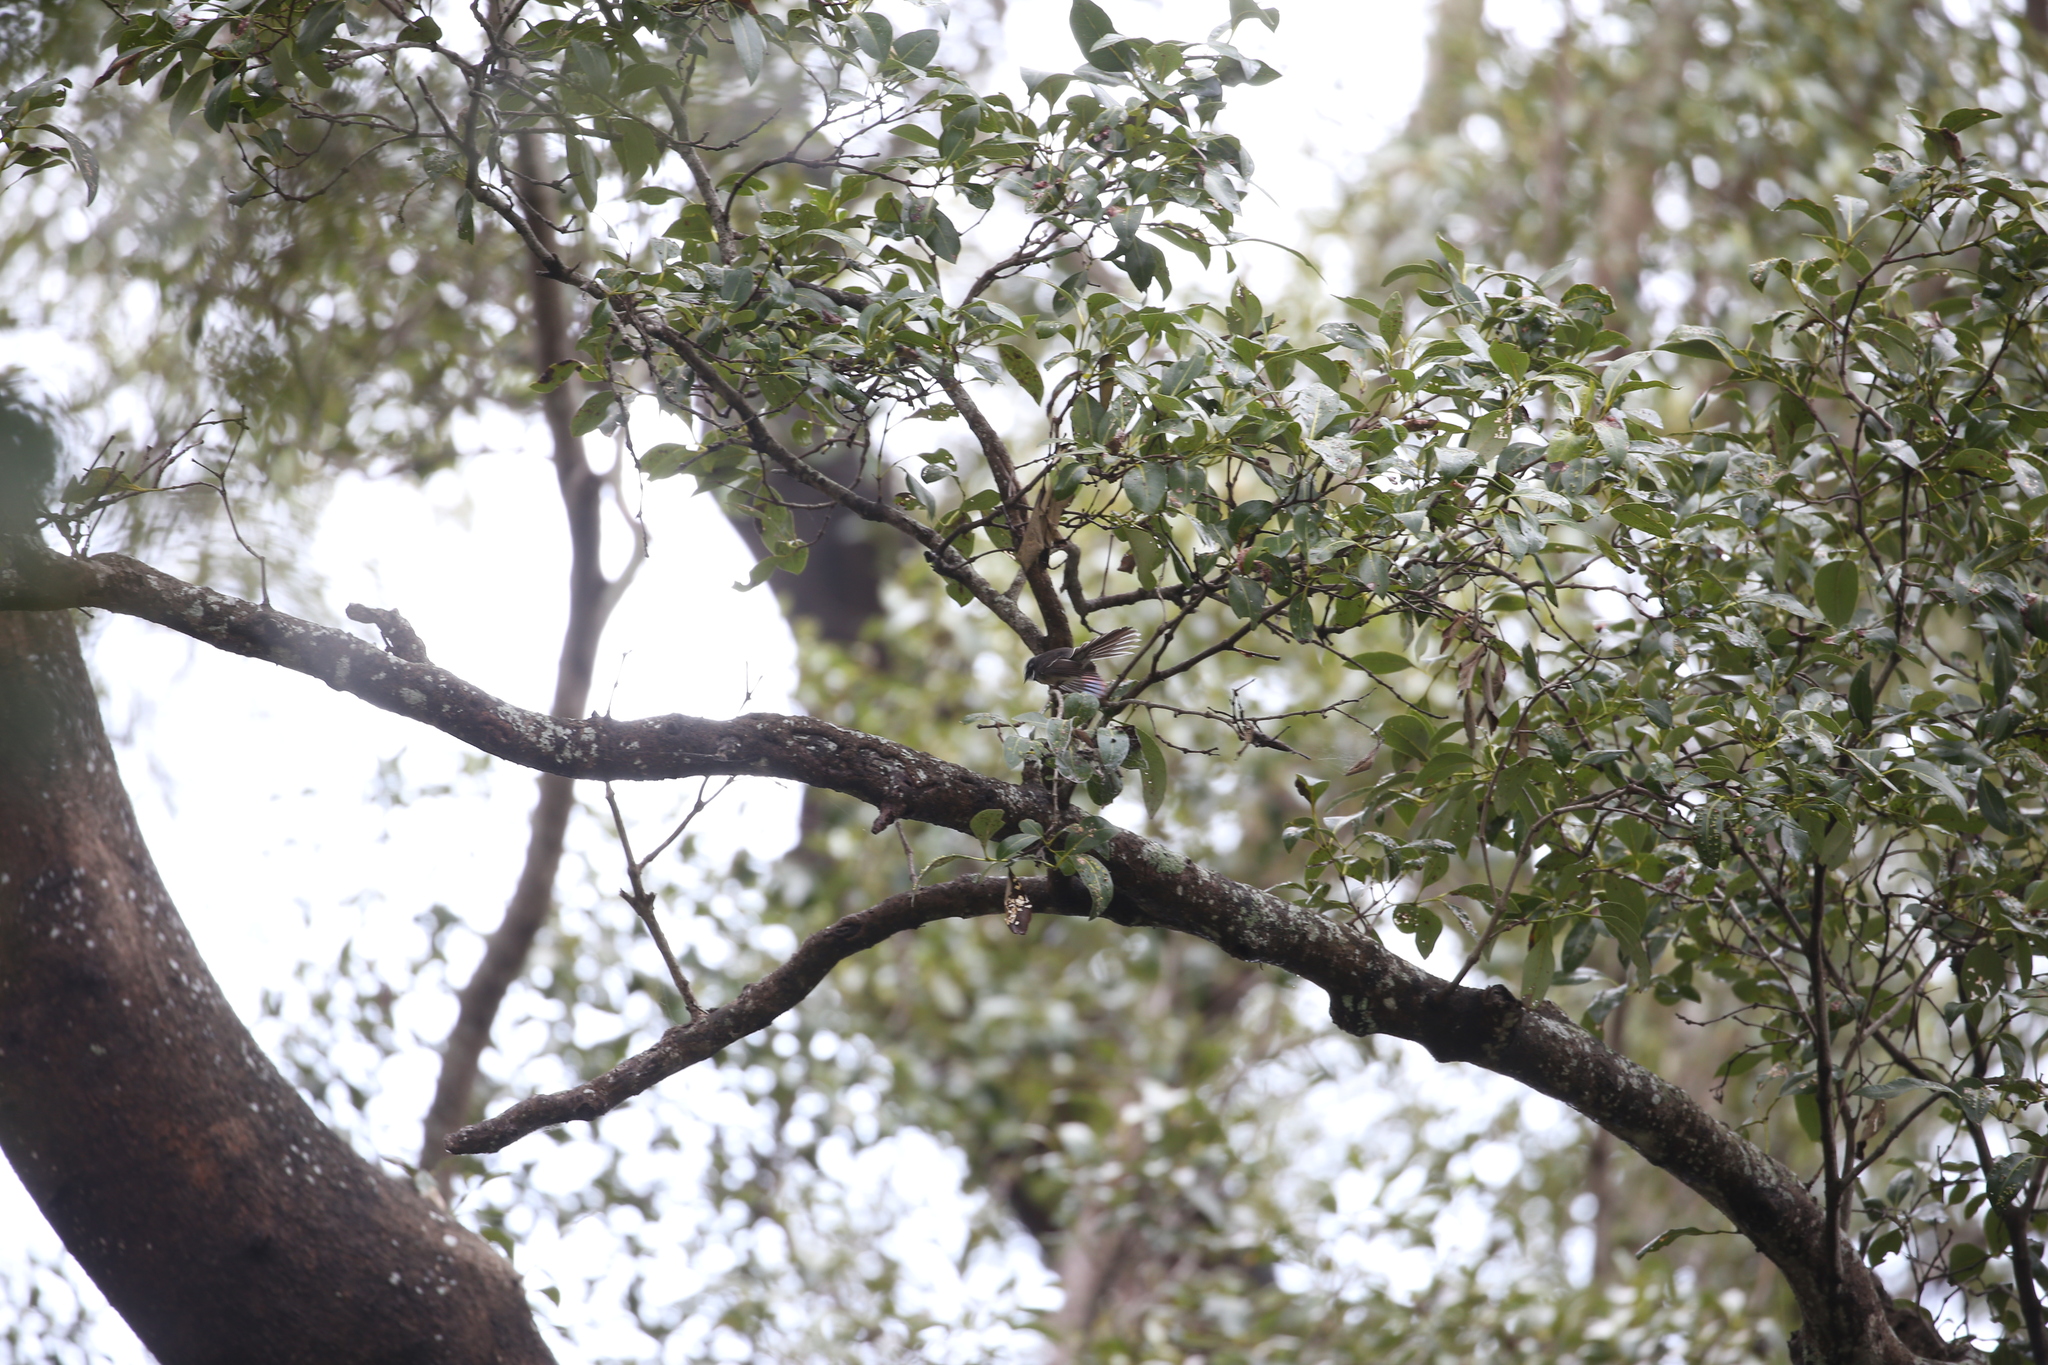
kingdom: Animalia
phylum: Chordata
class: Aves
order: Passeriformes
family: Rhipiduridae
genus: Rhipidura
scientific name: Rhipidura albiscapa
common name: Grey fantail
